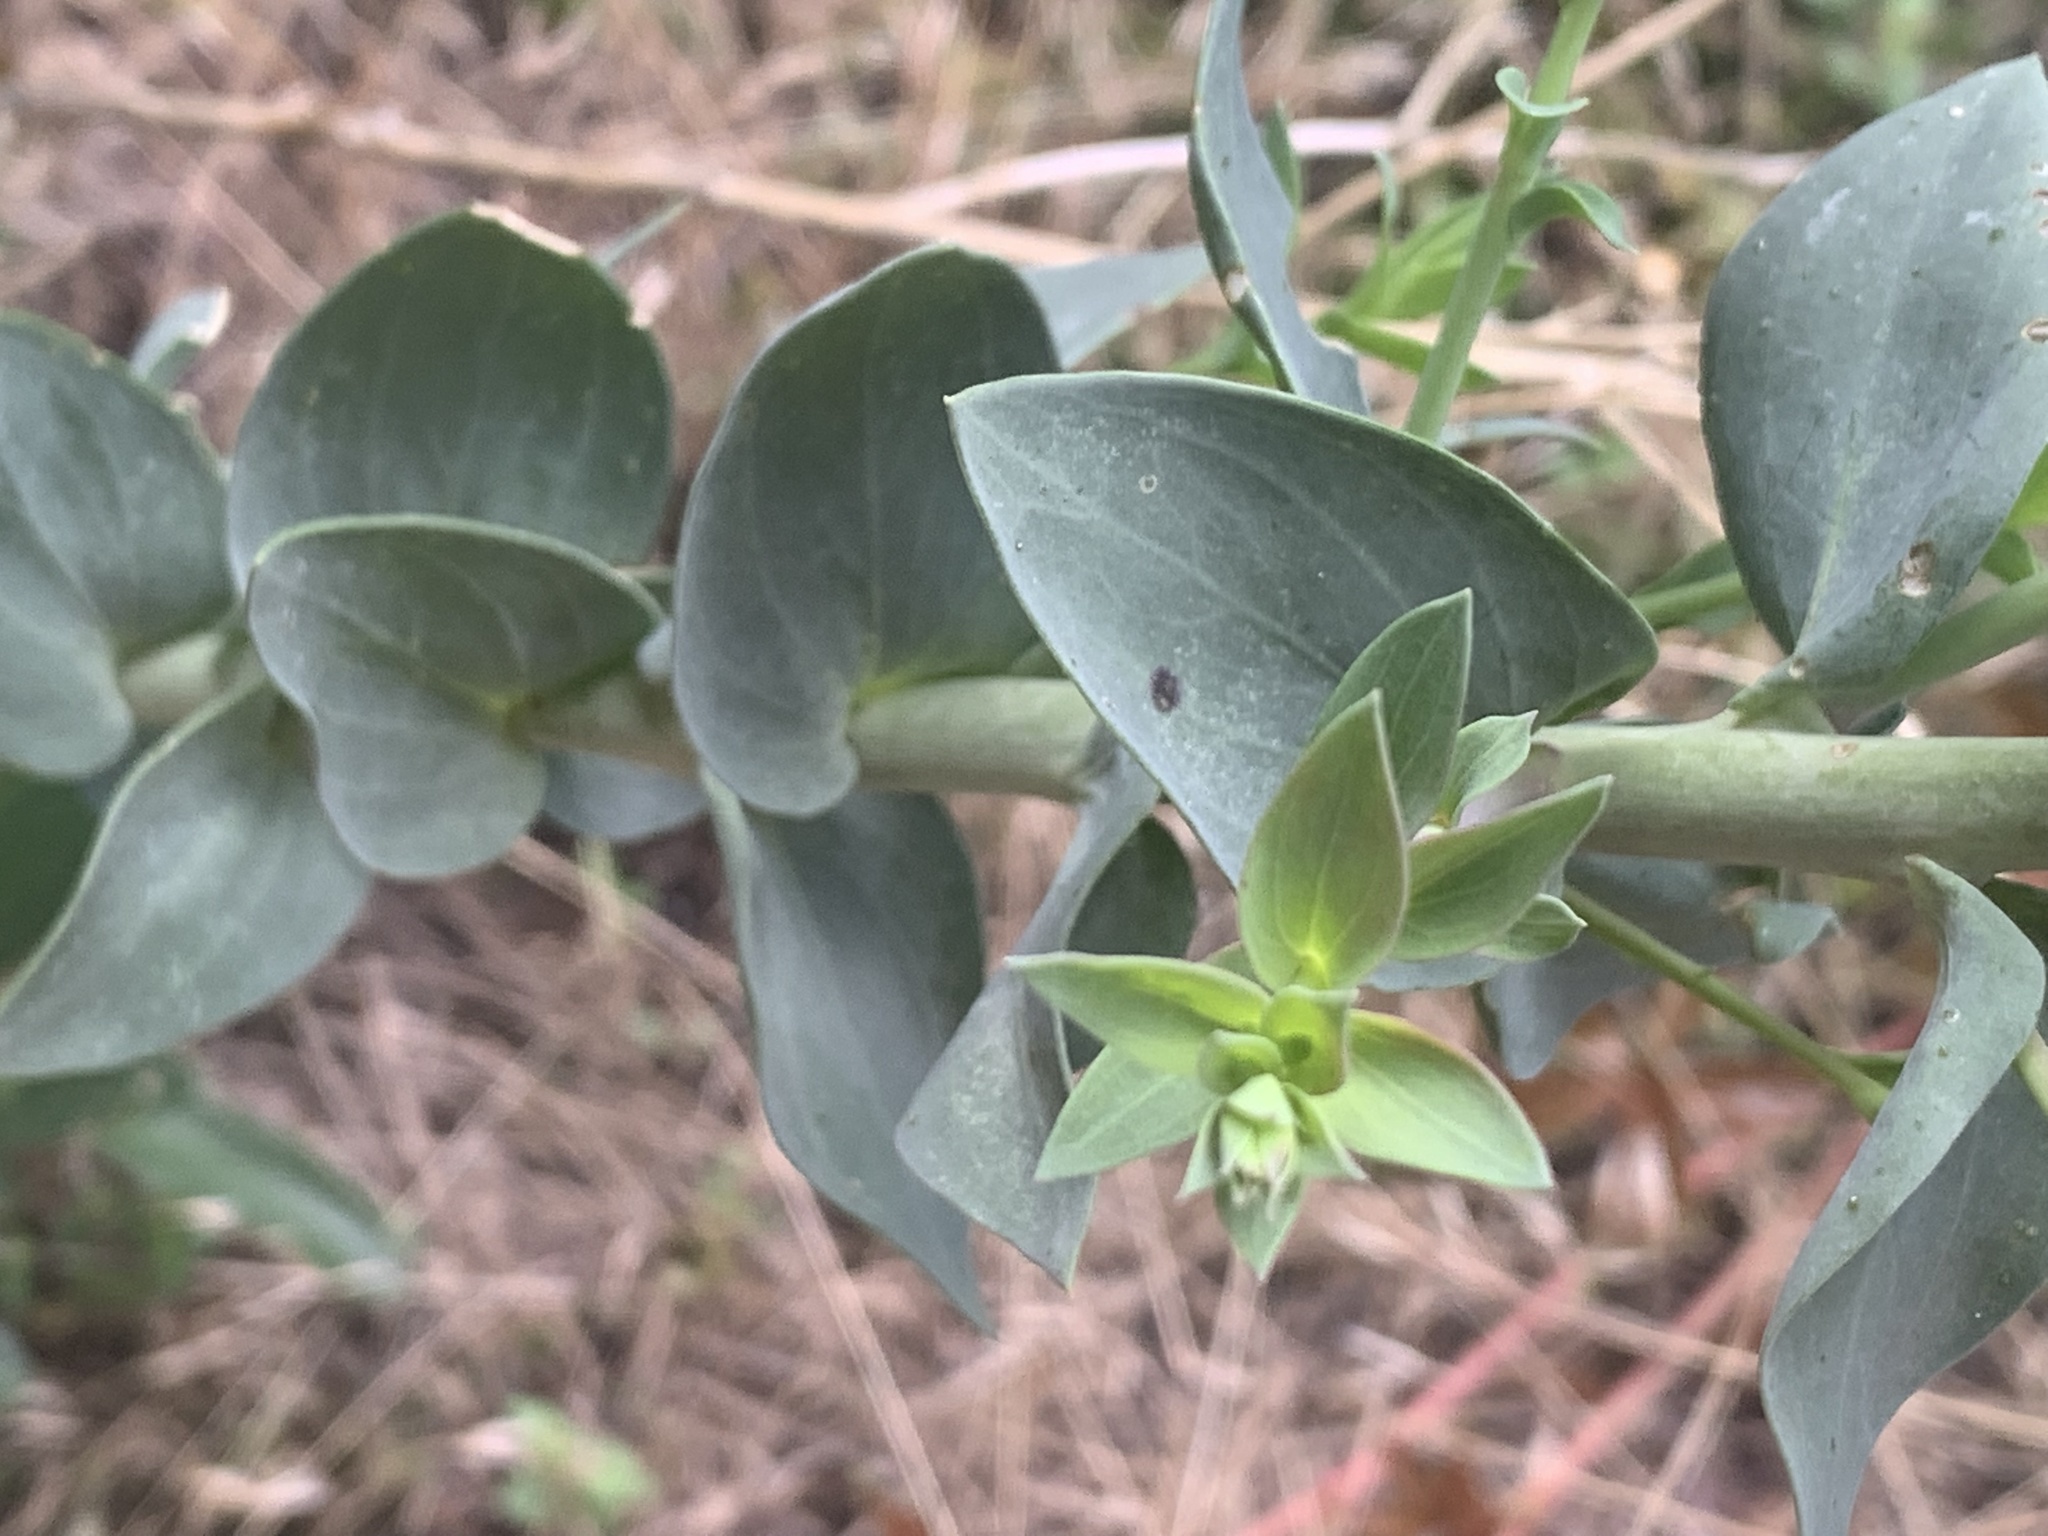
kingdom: Plantae
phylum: Tracheophyta
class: Magnoliopsida
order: Lamiales
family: Plantaginaceae
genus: Linaria
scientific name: Linaria dalmatica
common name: Dalmatian toadflax
